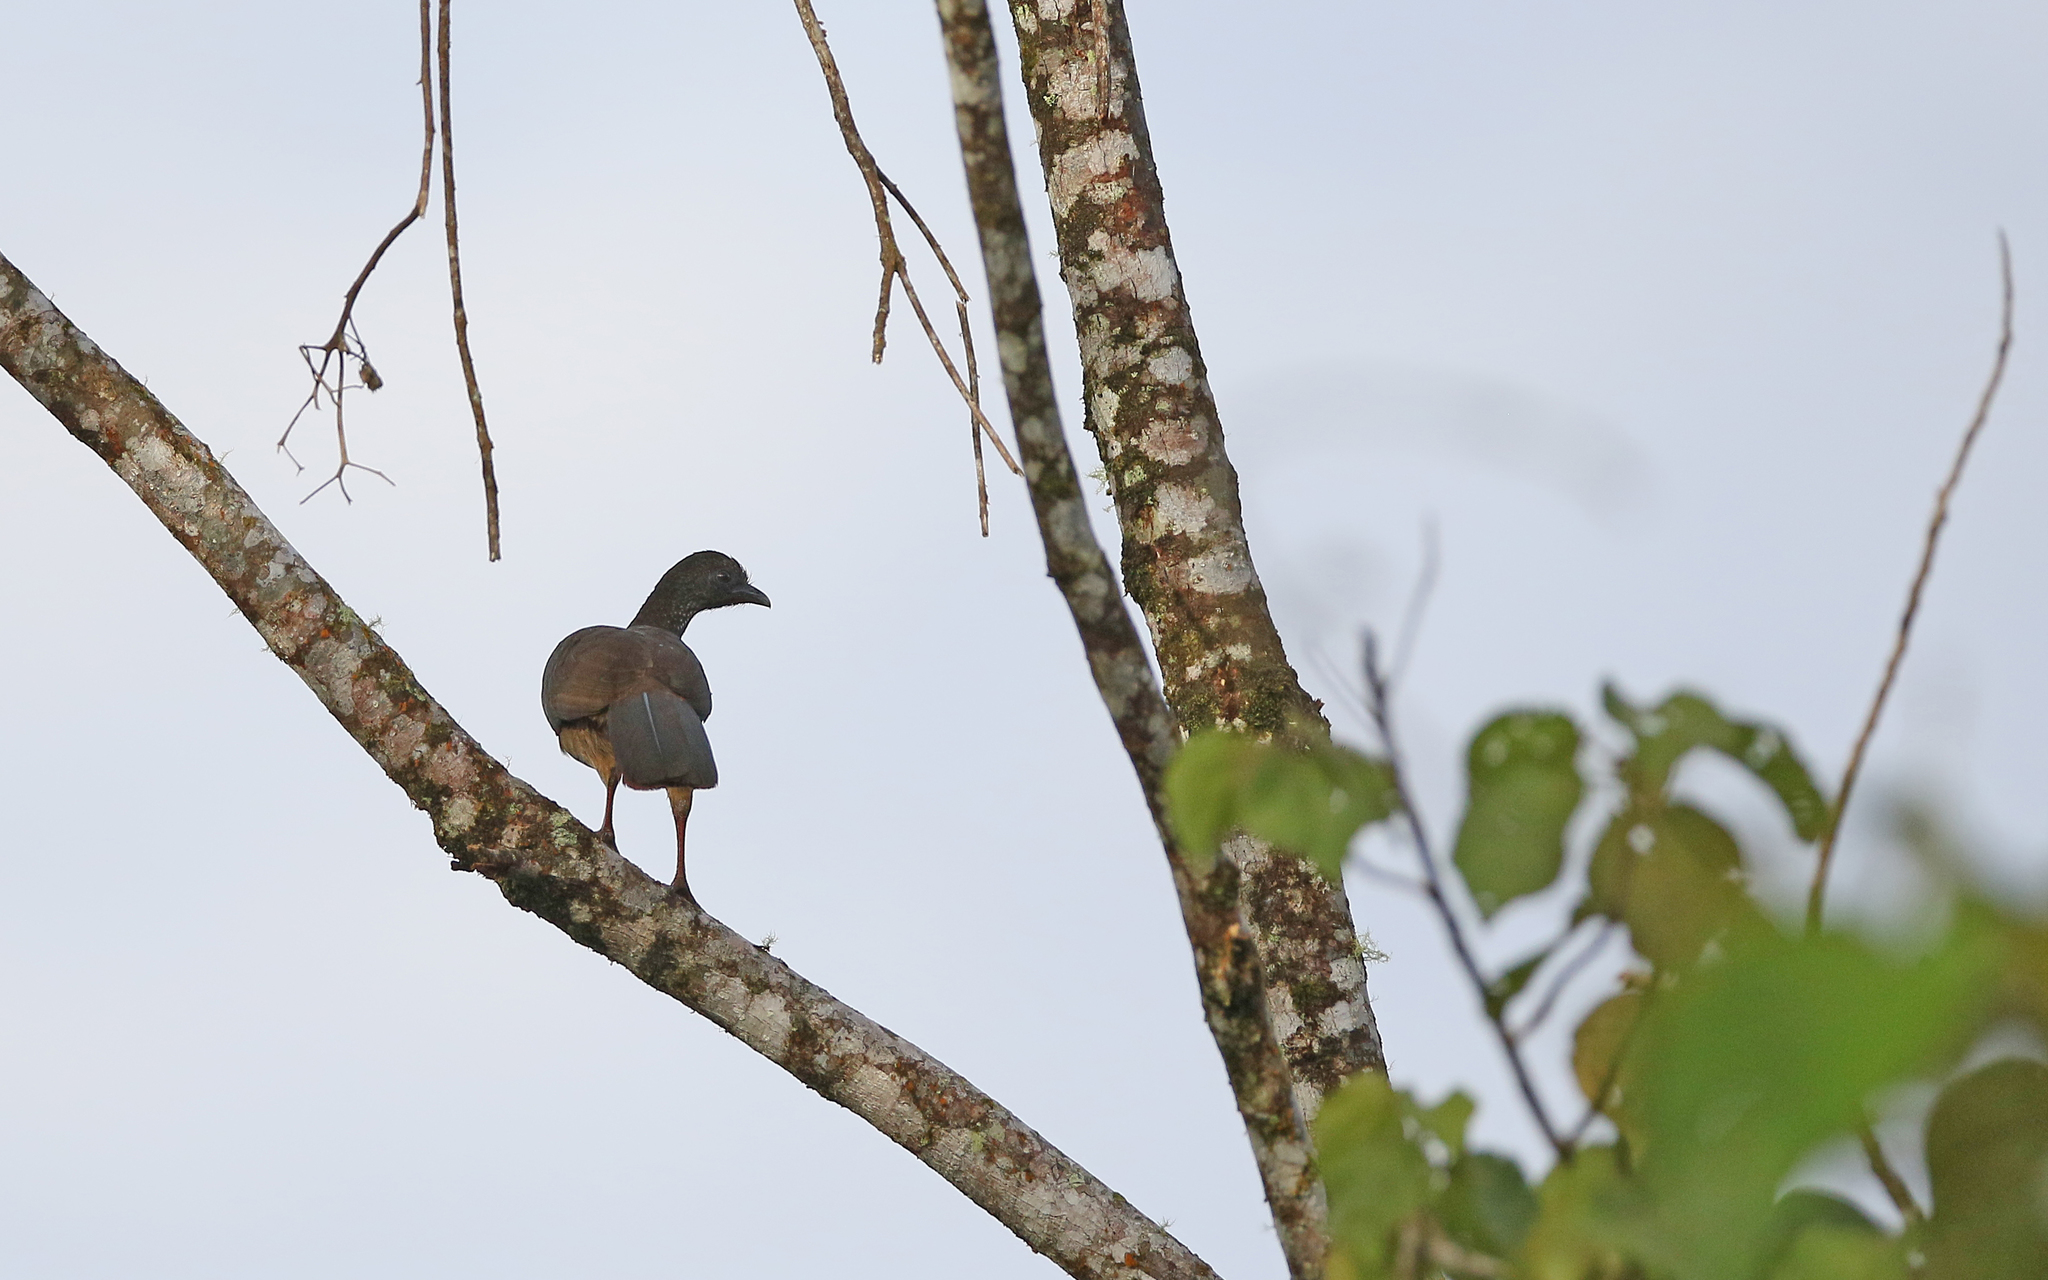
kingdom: Animalia
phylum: Chordata
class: Aves
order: Galliformes
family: Cracidae
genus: Ortalis
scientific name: Ortalis guttata
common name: Speckled chachalaca
